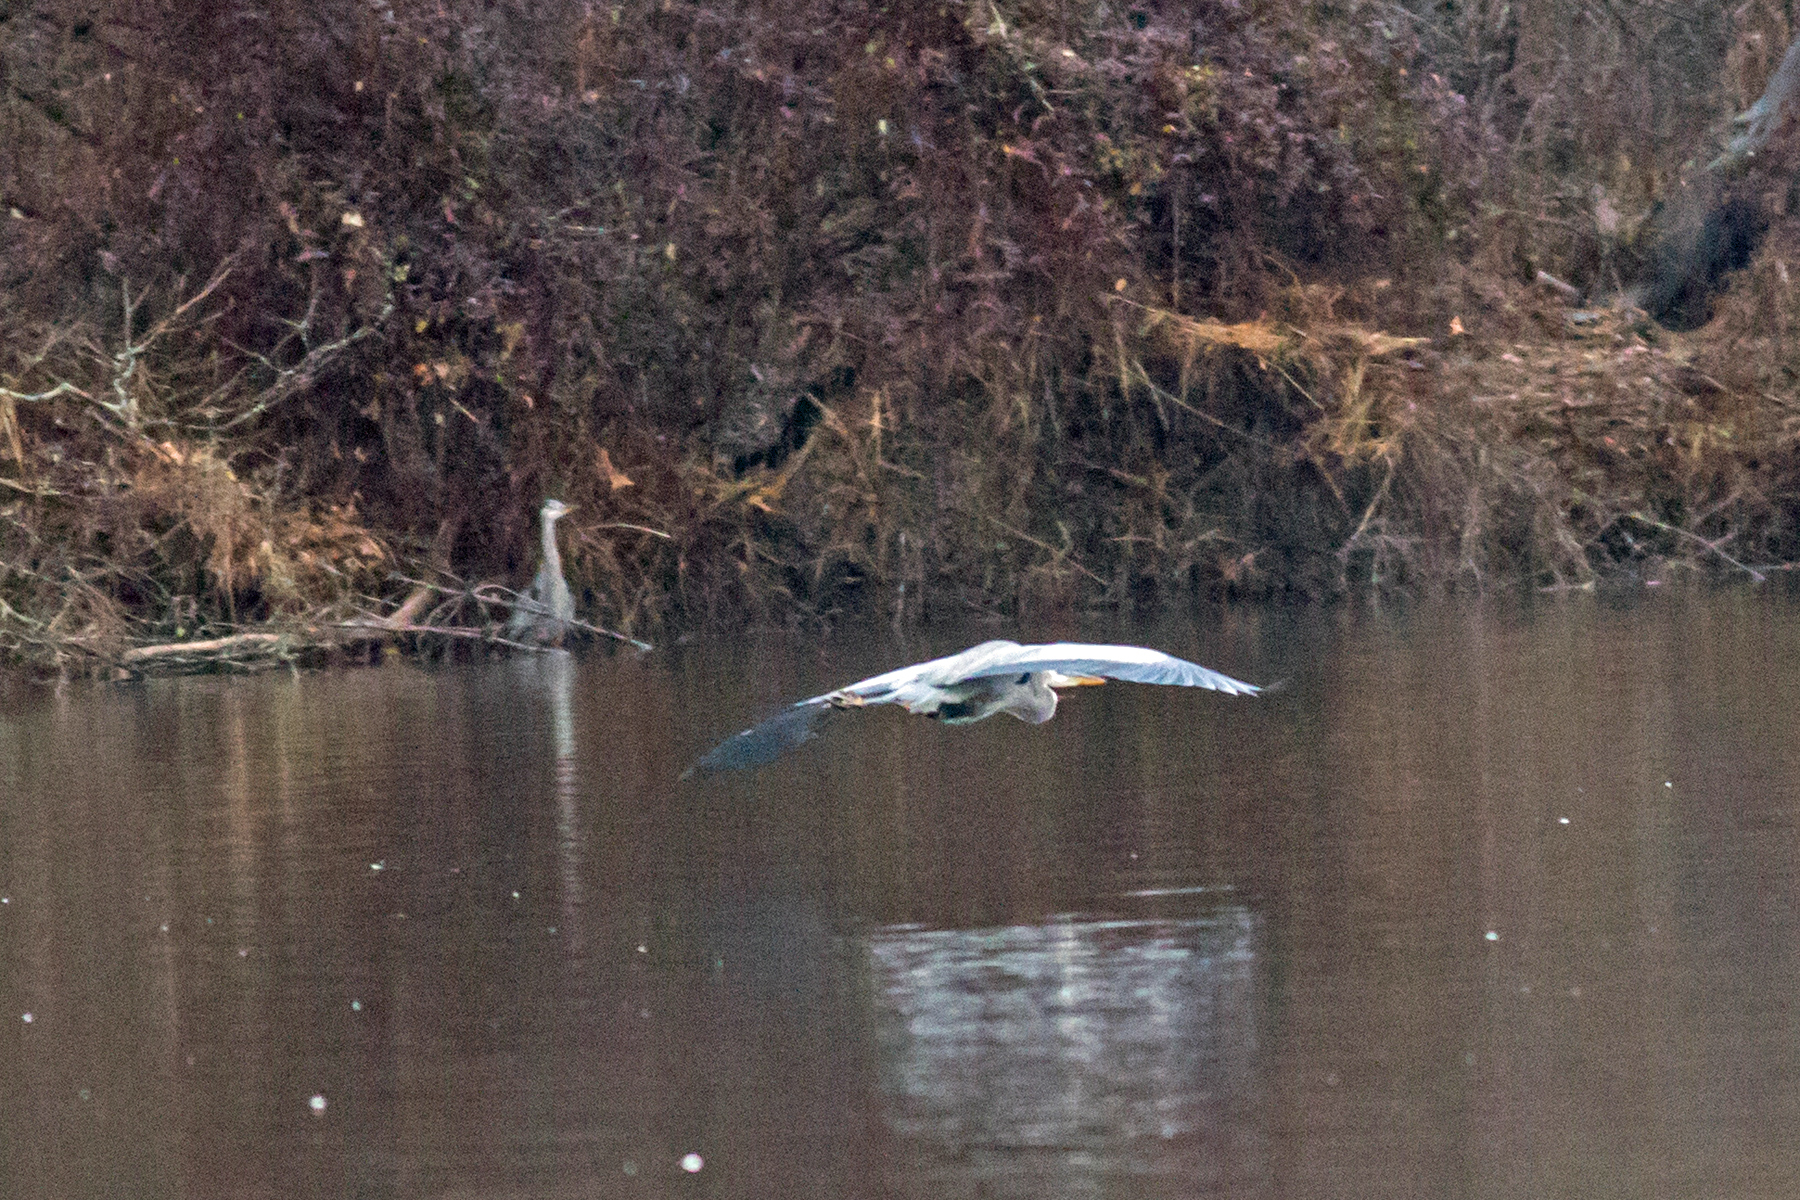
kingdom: Animalia
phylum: Chordata
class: Aves
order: Pelecaniformes
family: Ardeidae
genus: Ardea
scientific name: Ardea herodias
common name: Great blue heron
